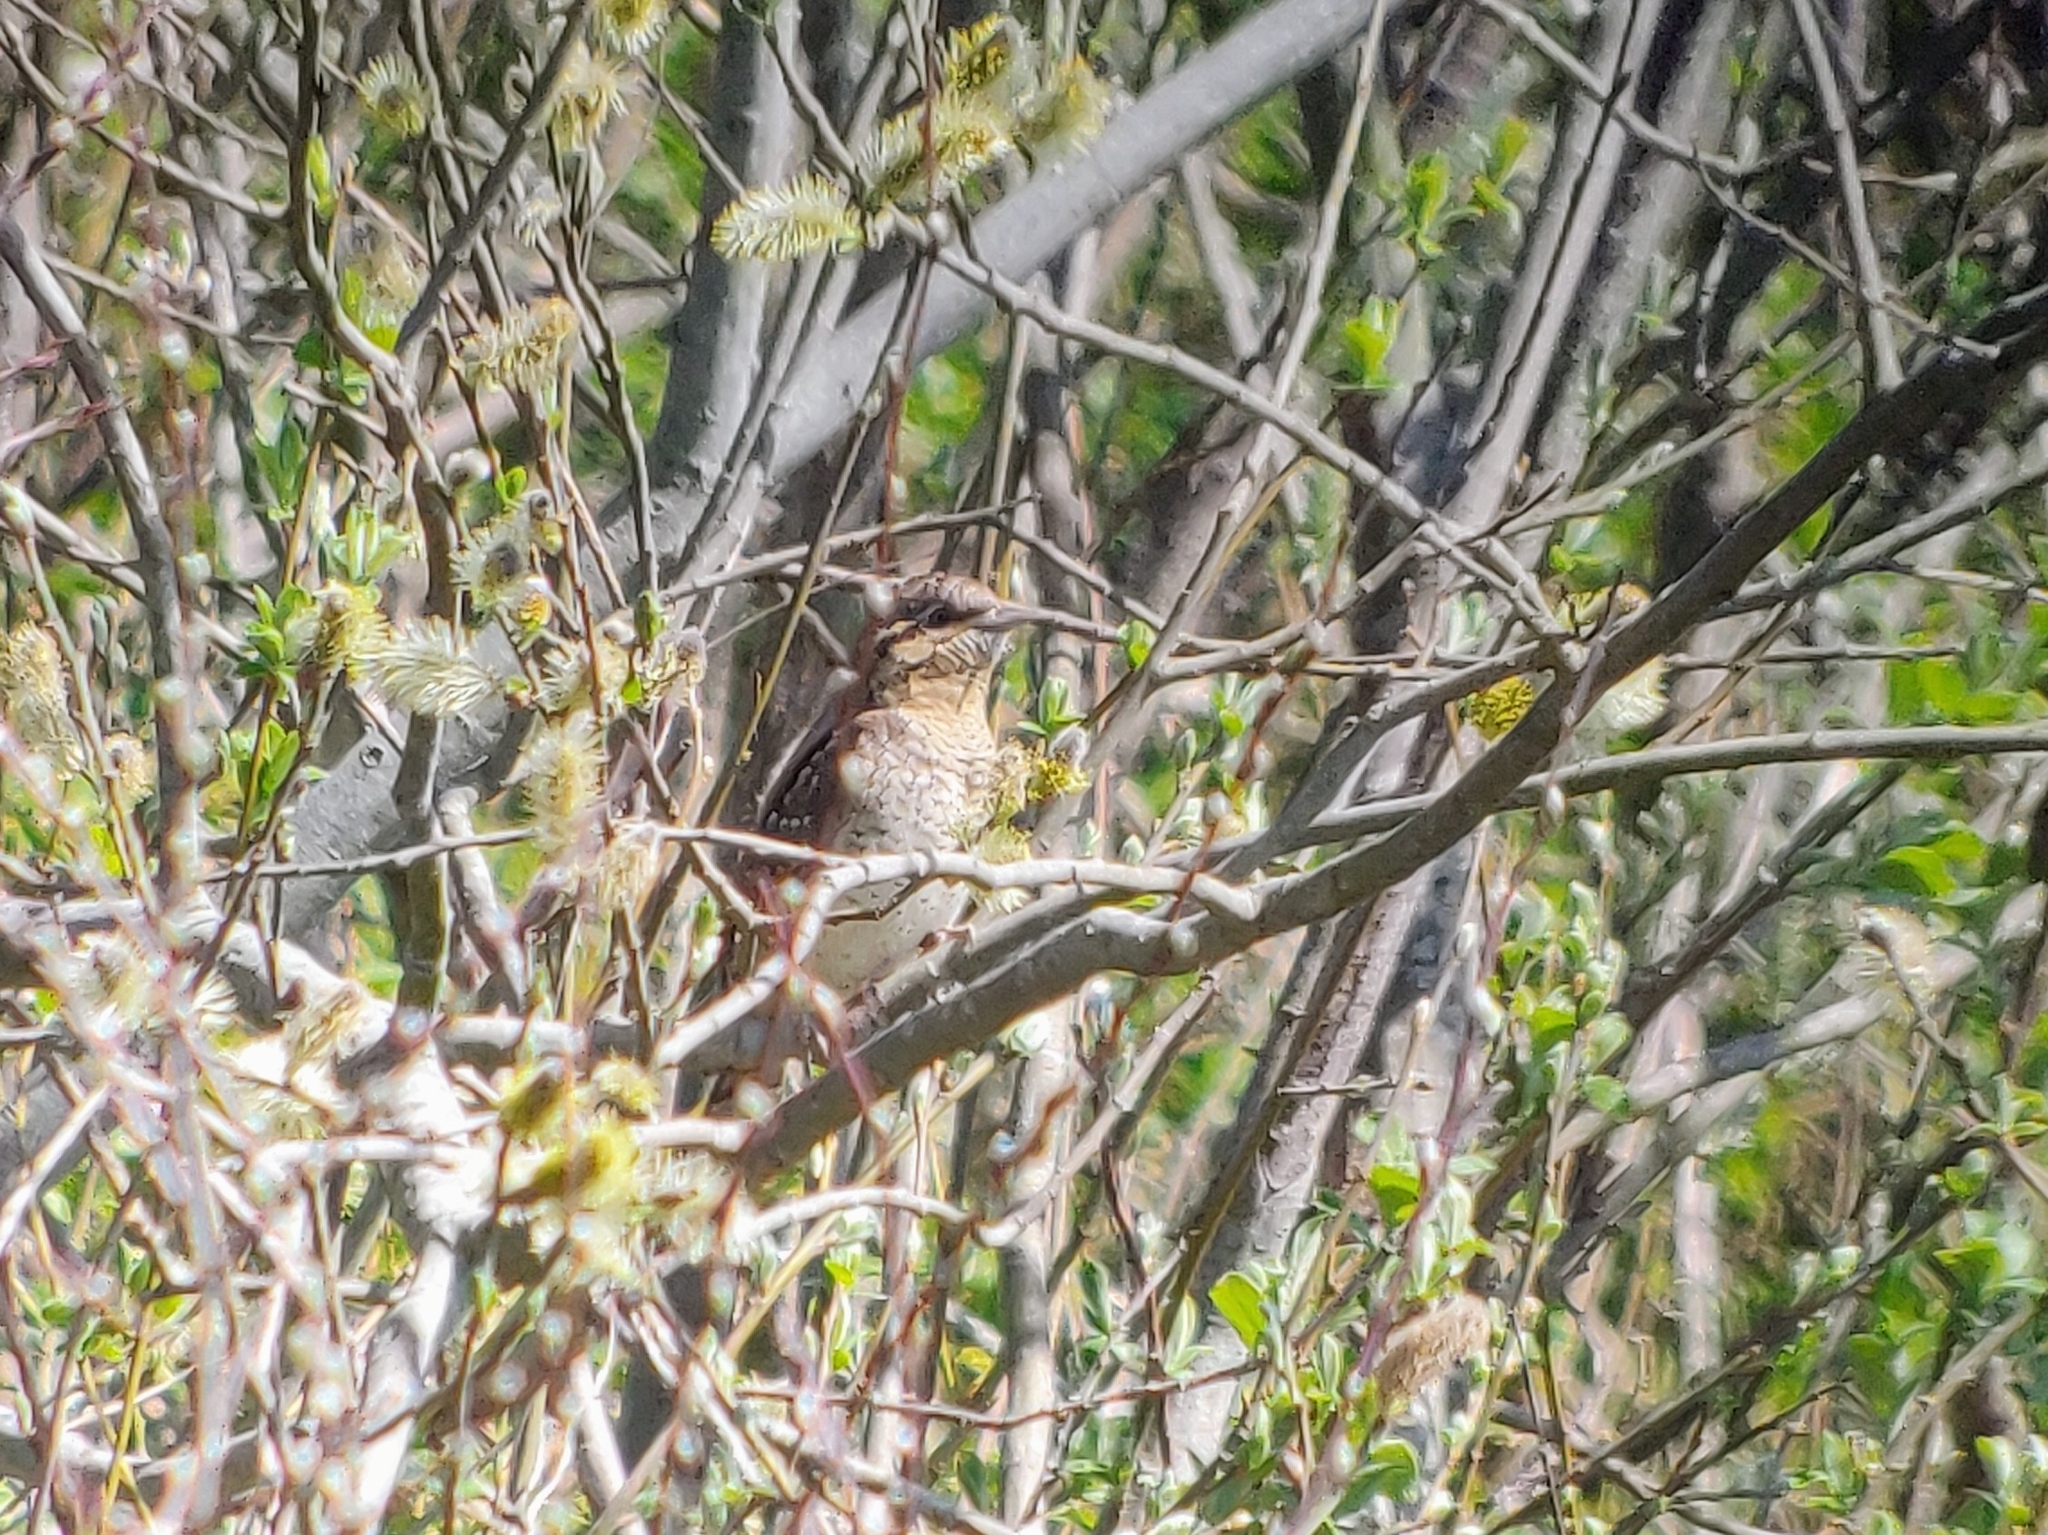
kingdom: Animalia
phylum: Chordata
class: Aves
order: Piciformes
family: Picidae
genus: Jynx
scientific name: Jynx torquilla
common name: Eurasian wryneck
